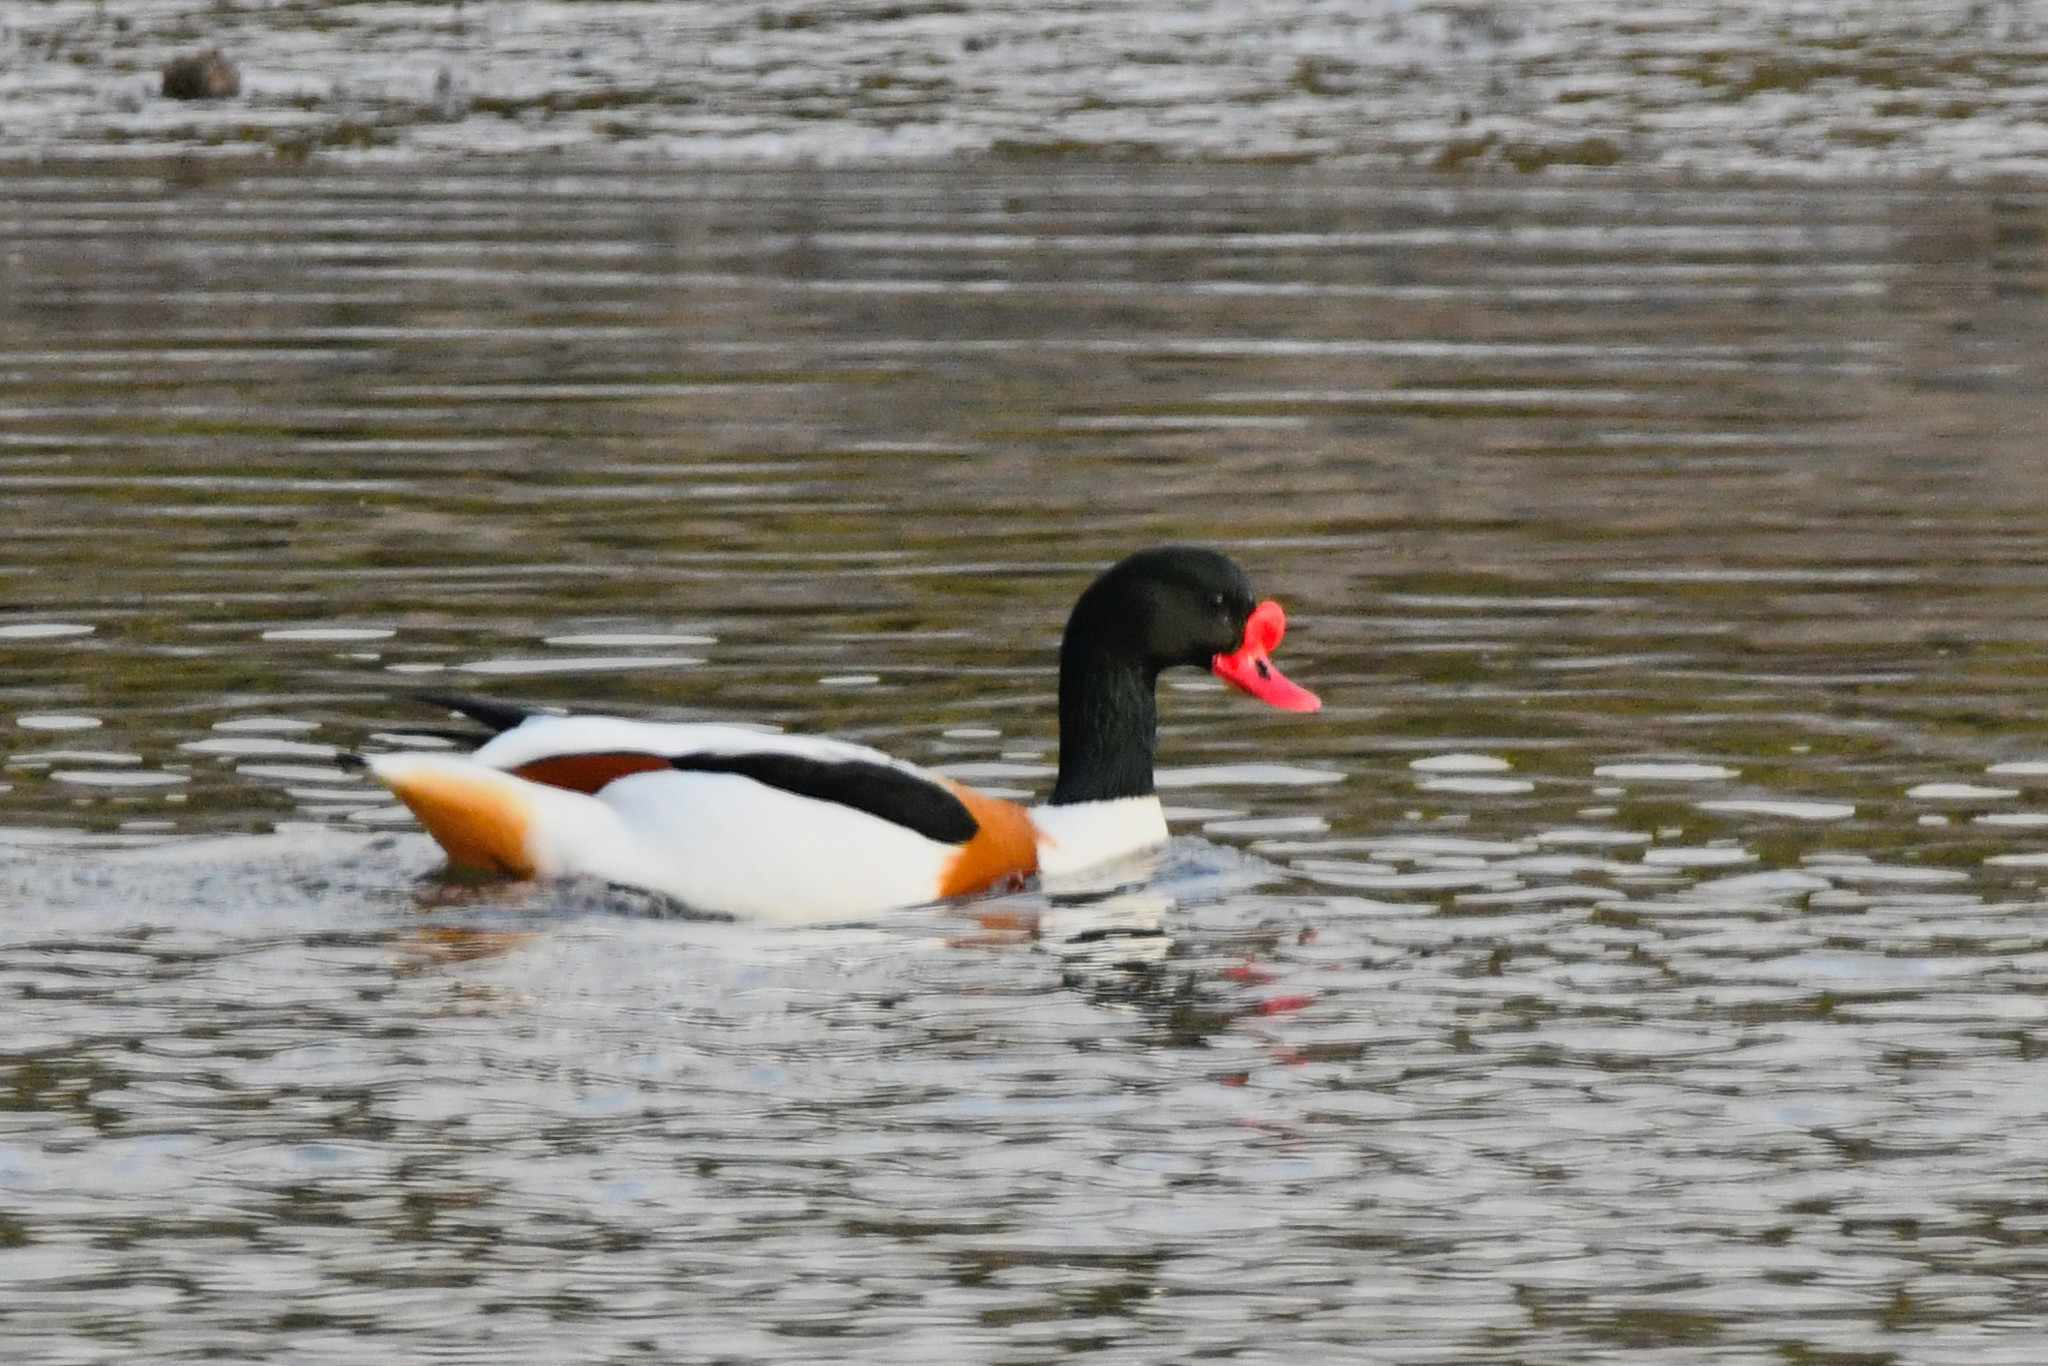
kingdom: Animalia
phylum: Chordata
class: Aves
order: Anseriformes
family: Anatidae
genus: Tadorna
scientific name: Tadorna tadorna
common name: Common shelduck
